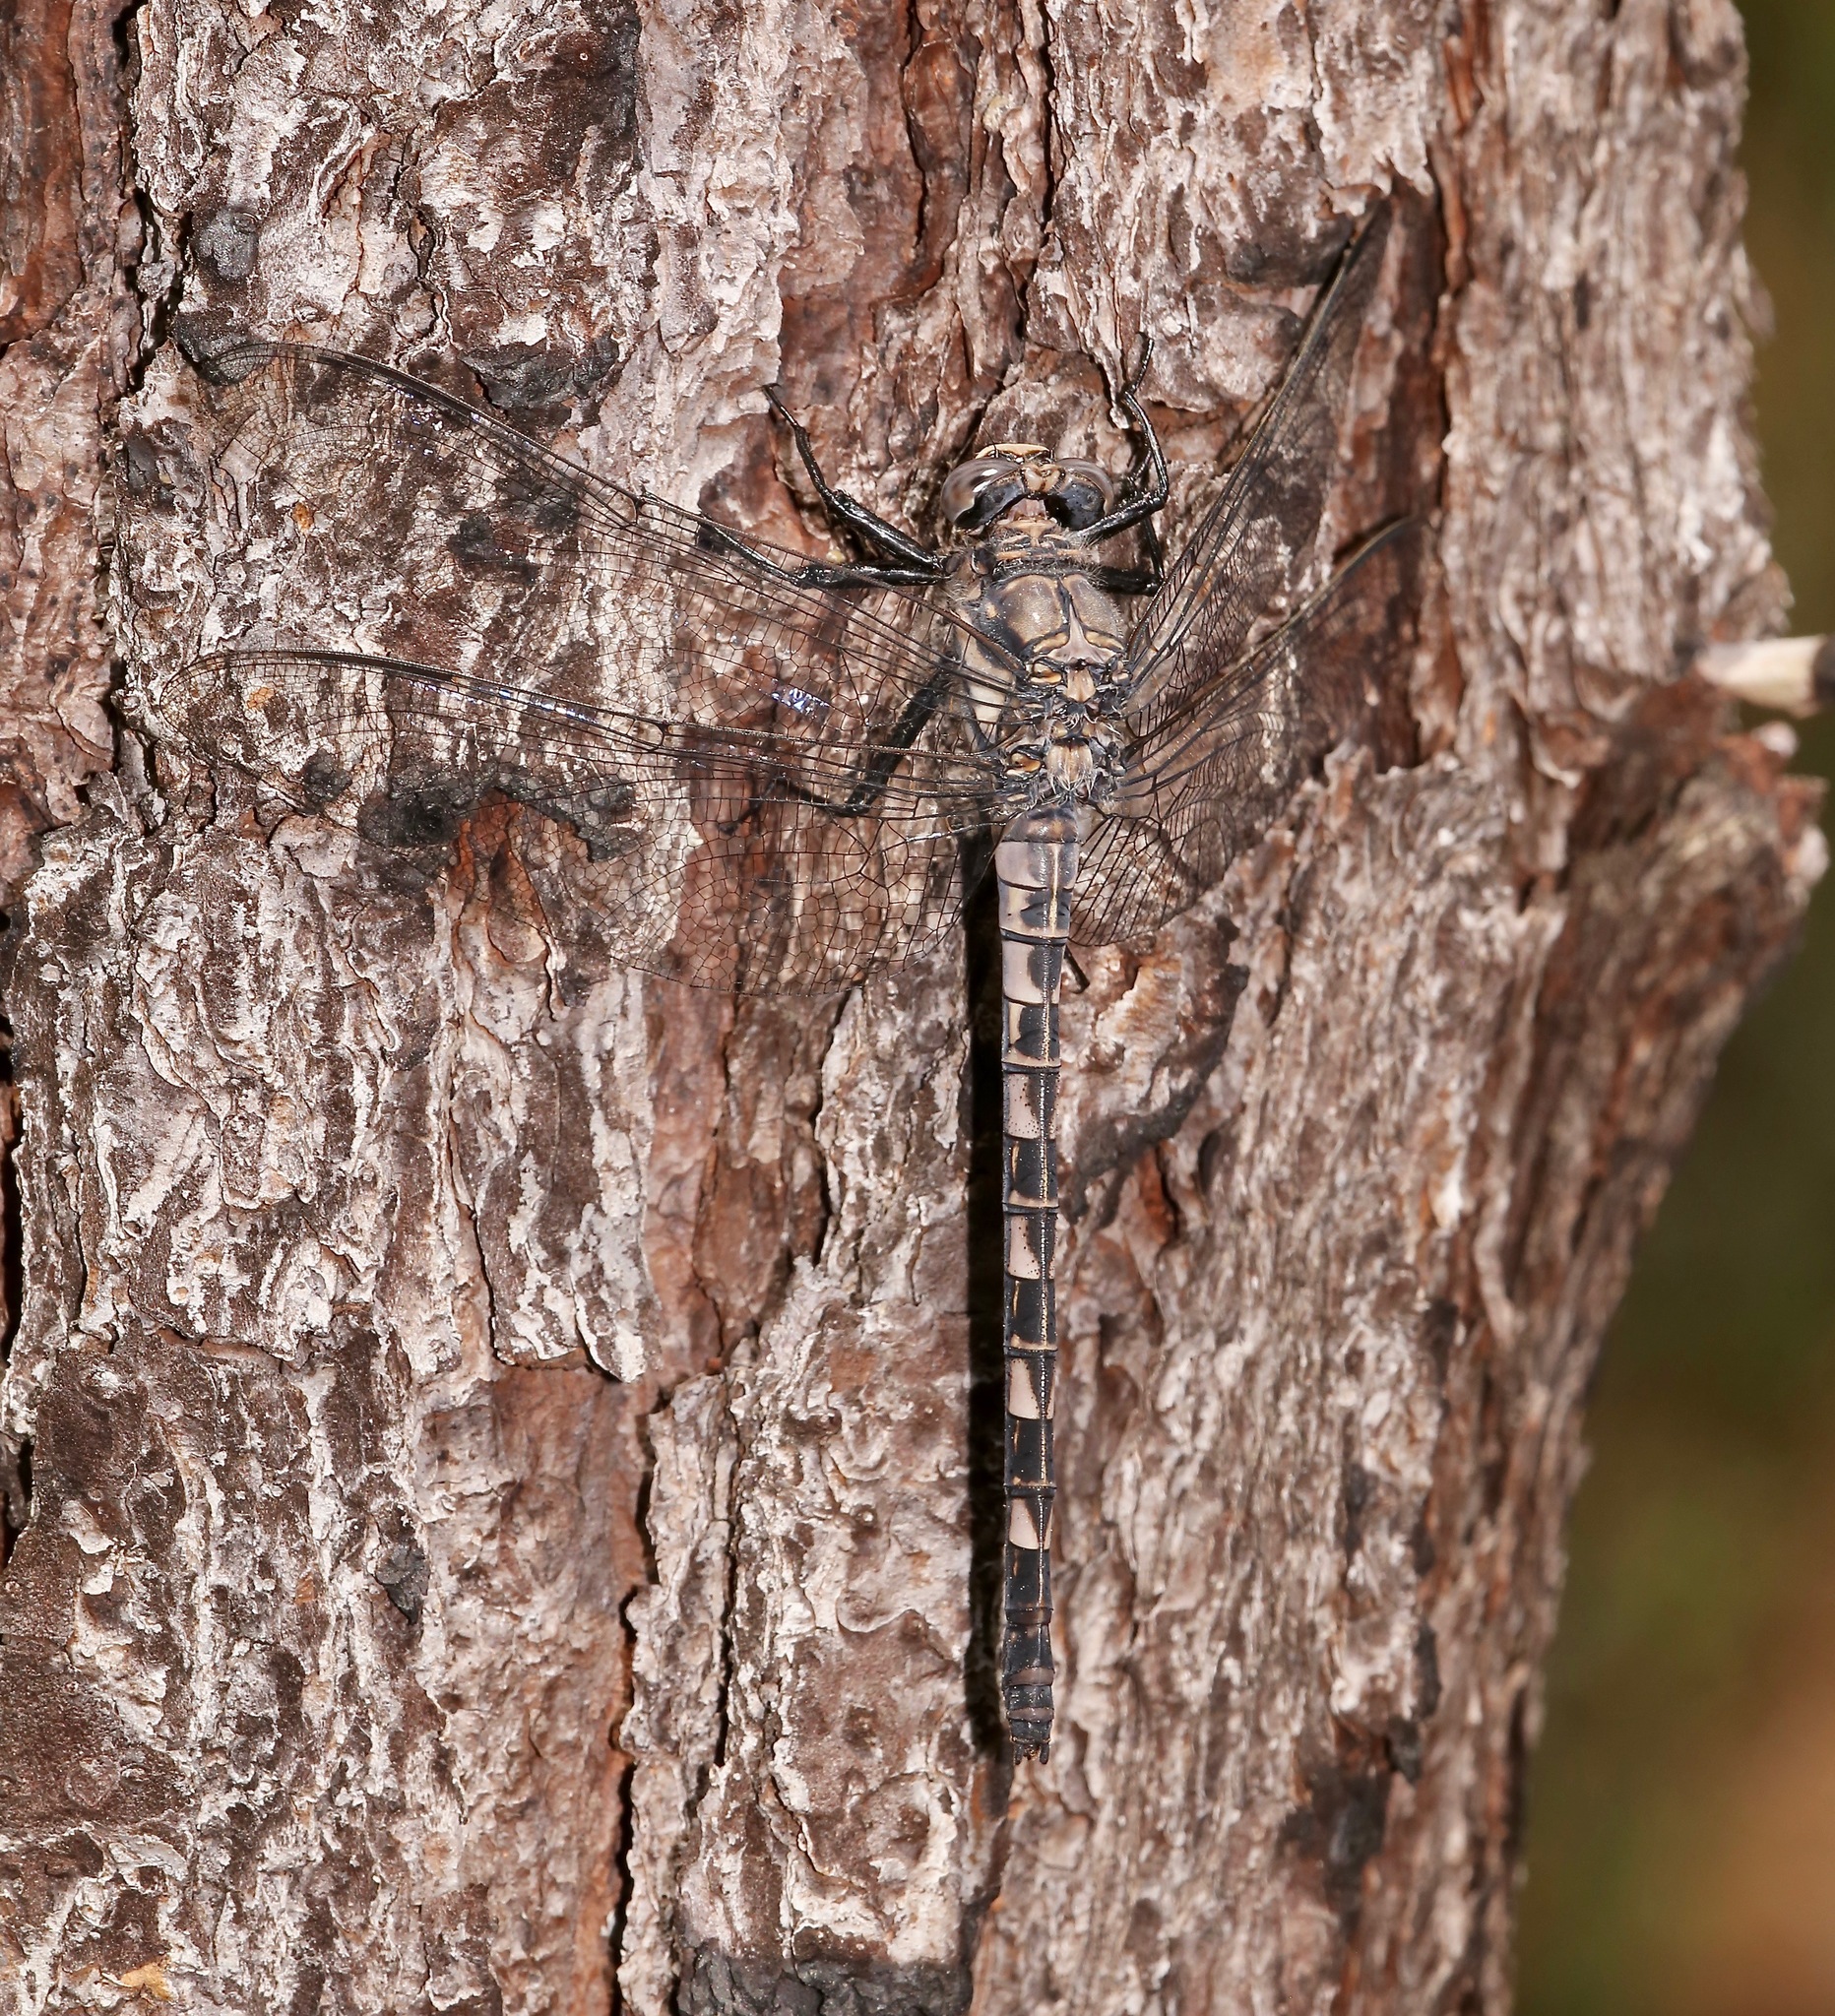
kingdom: Animalia
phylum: Arthropoda
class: Insecta
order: Odonata
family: Petaluridae
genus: Tachopteryx
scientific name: Tachopteryx thoreyi
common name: Gray petaltail
